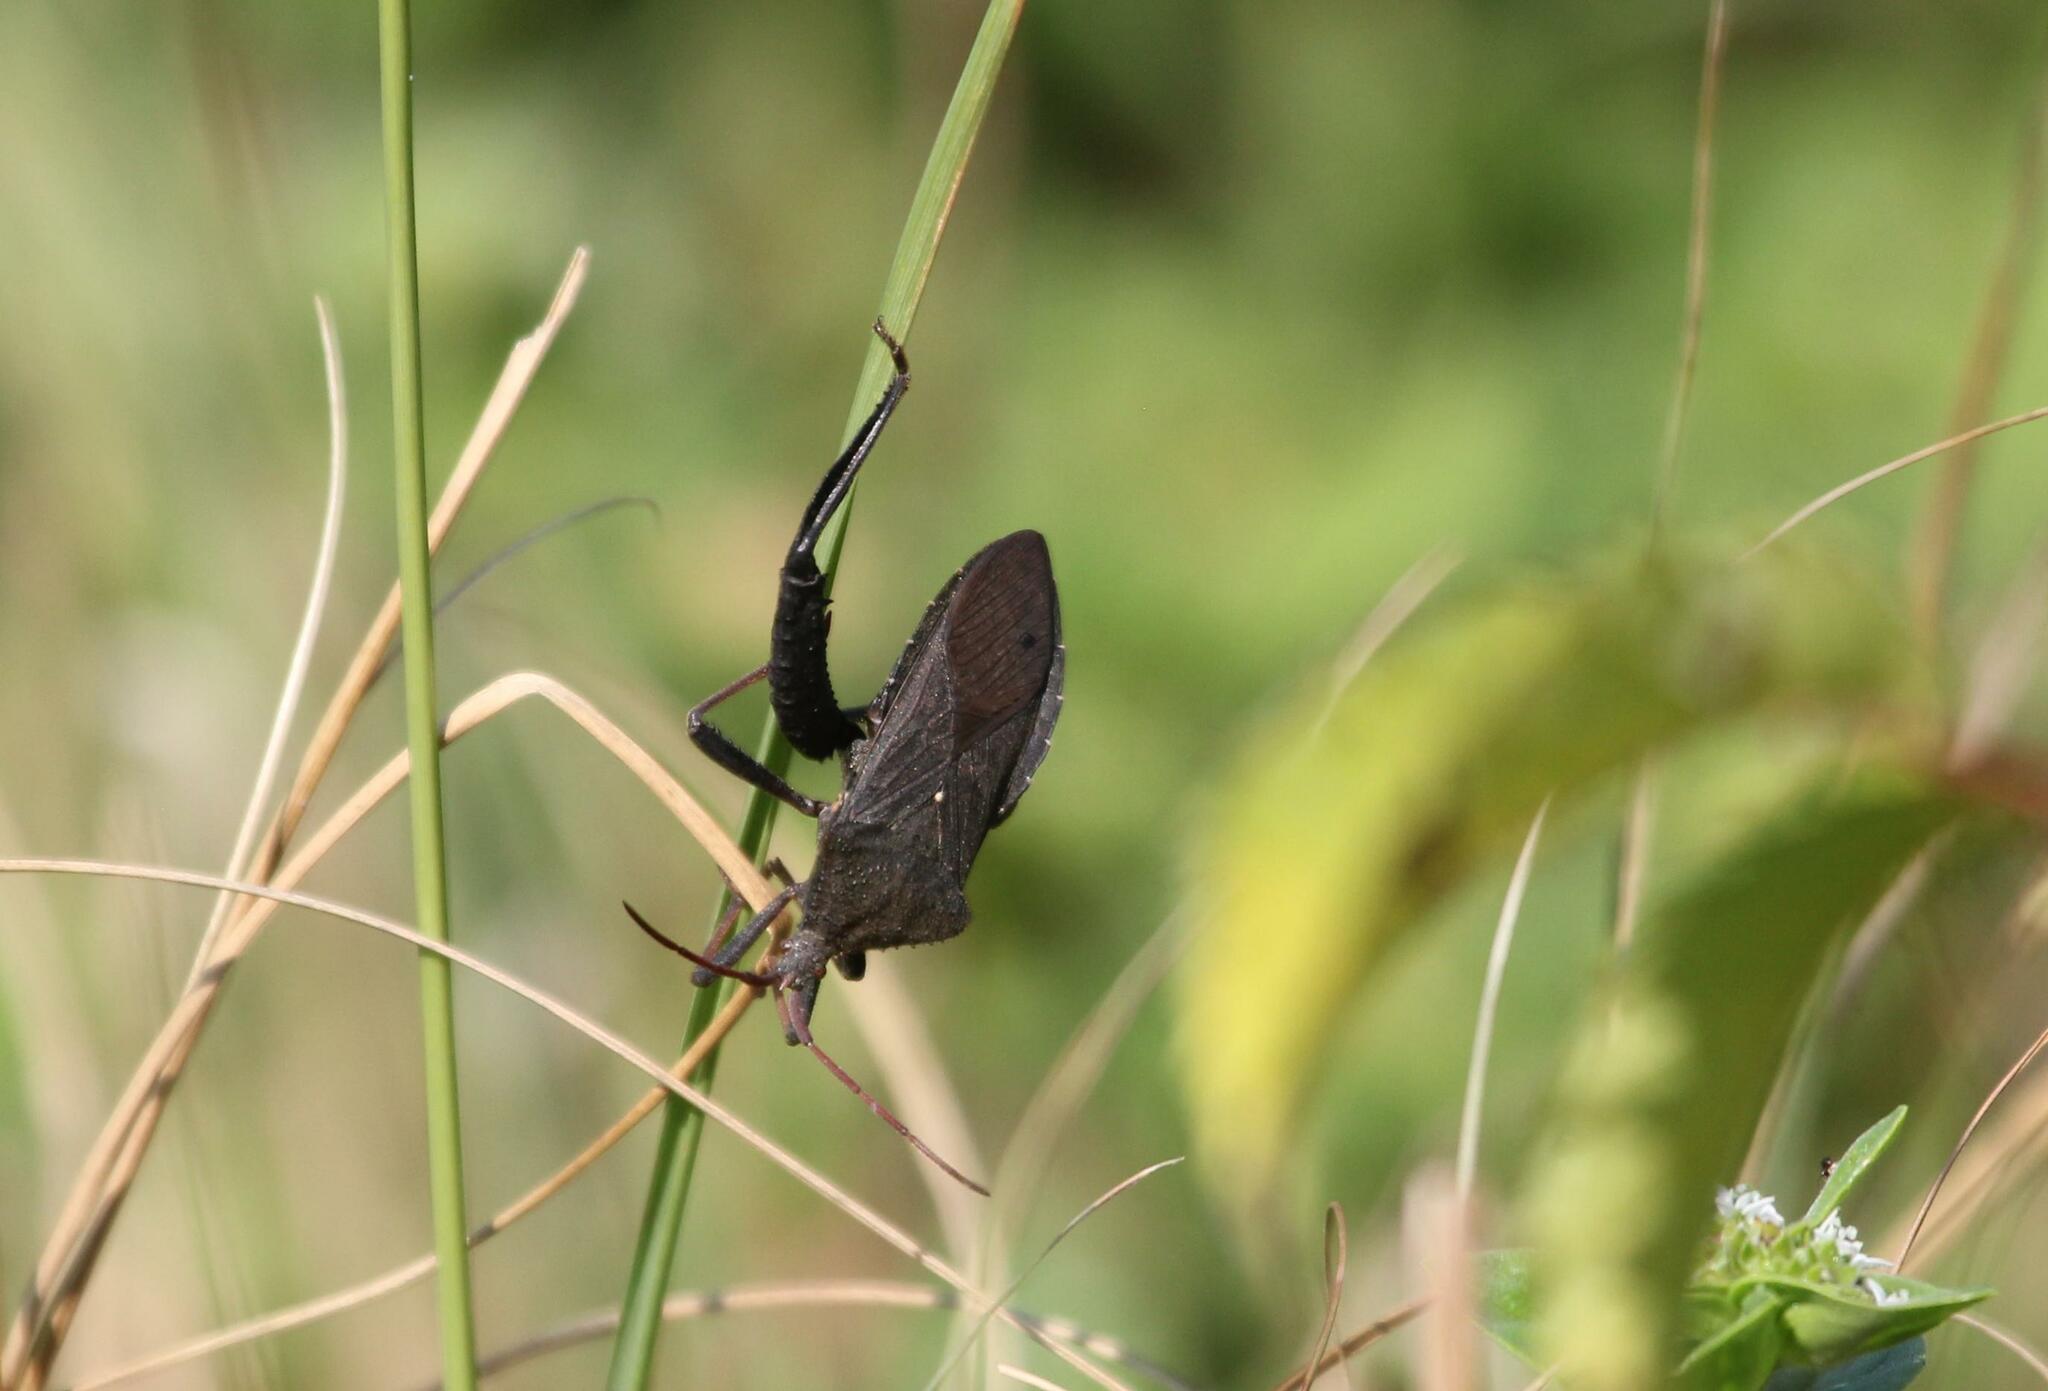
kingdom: Animalia
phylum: Arthropoda
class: Insecta
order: Hemiptera
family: Coreidae
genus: Acanthocephala
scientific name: Acanthocephala femorata
